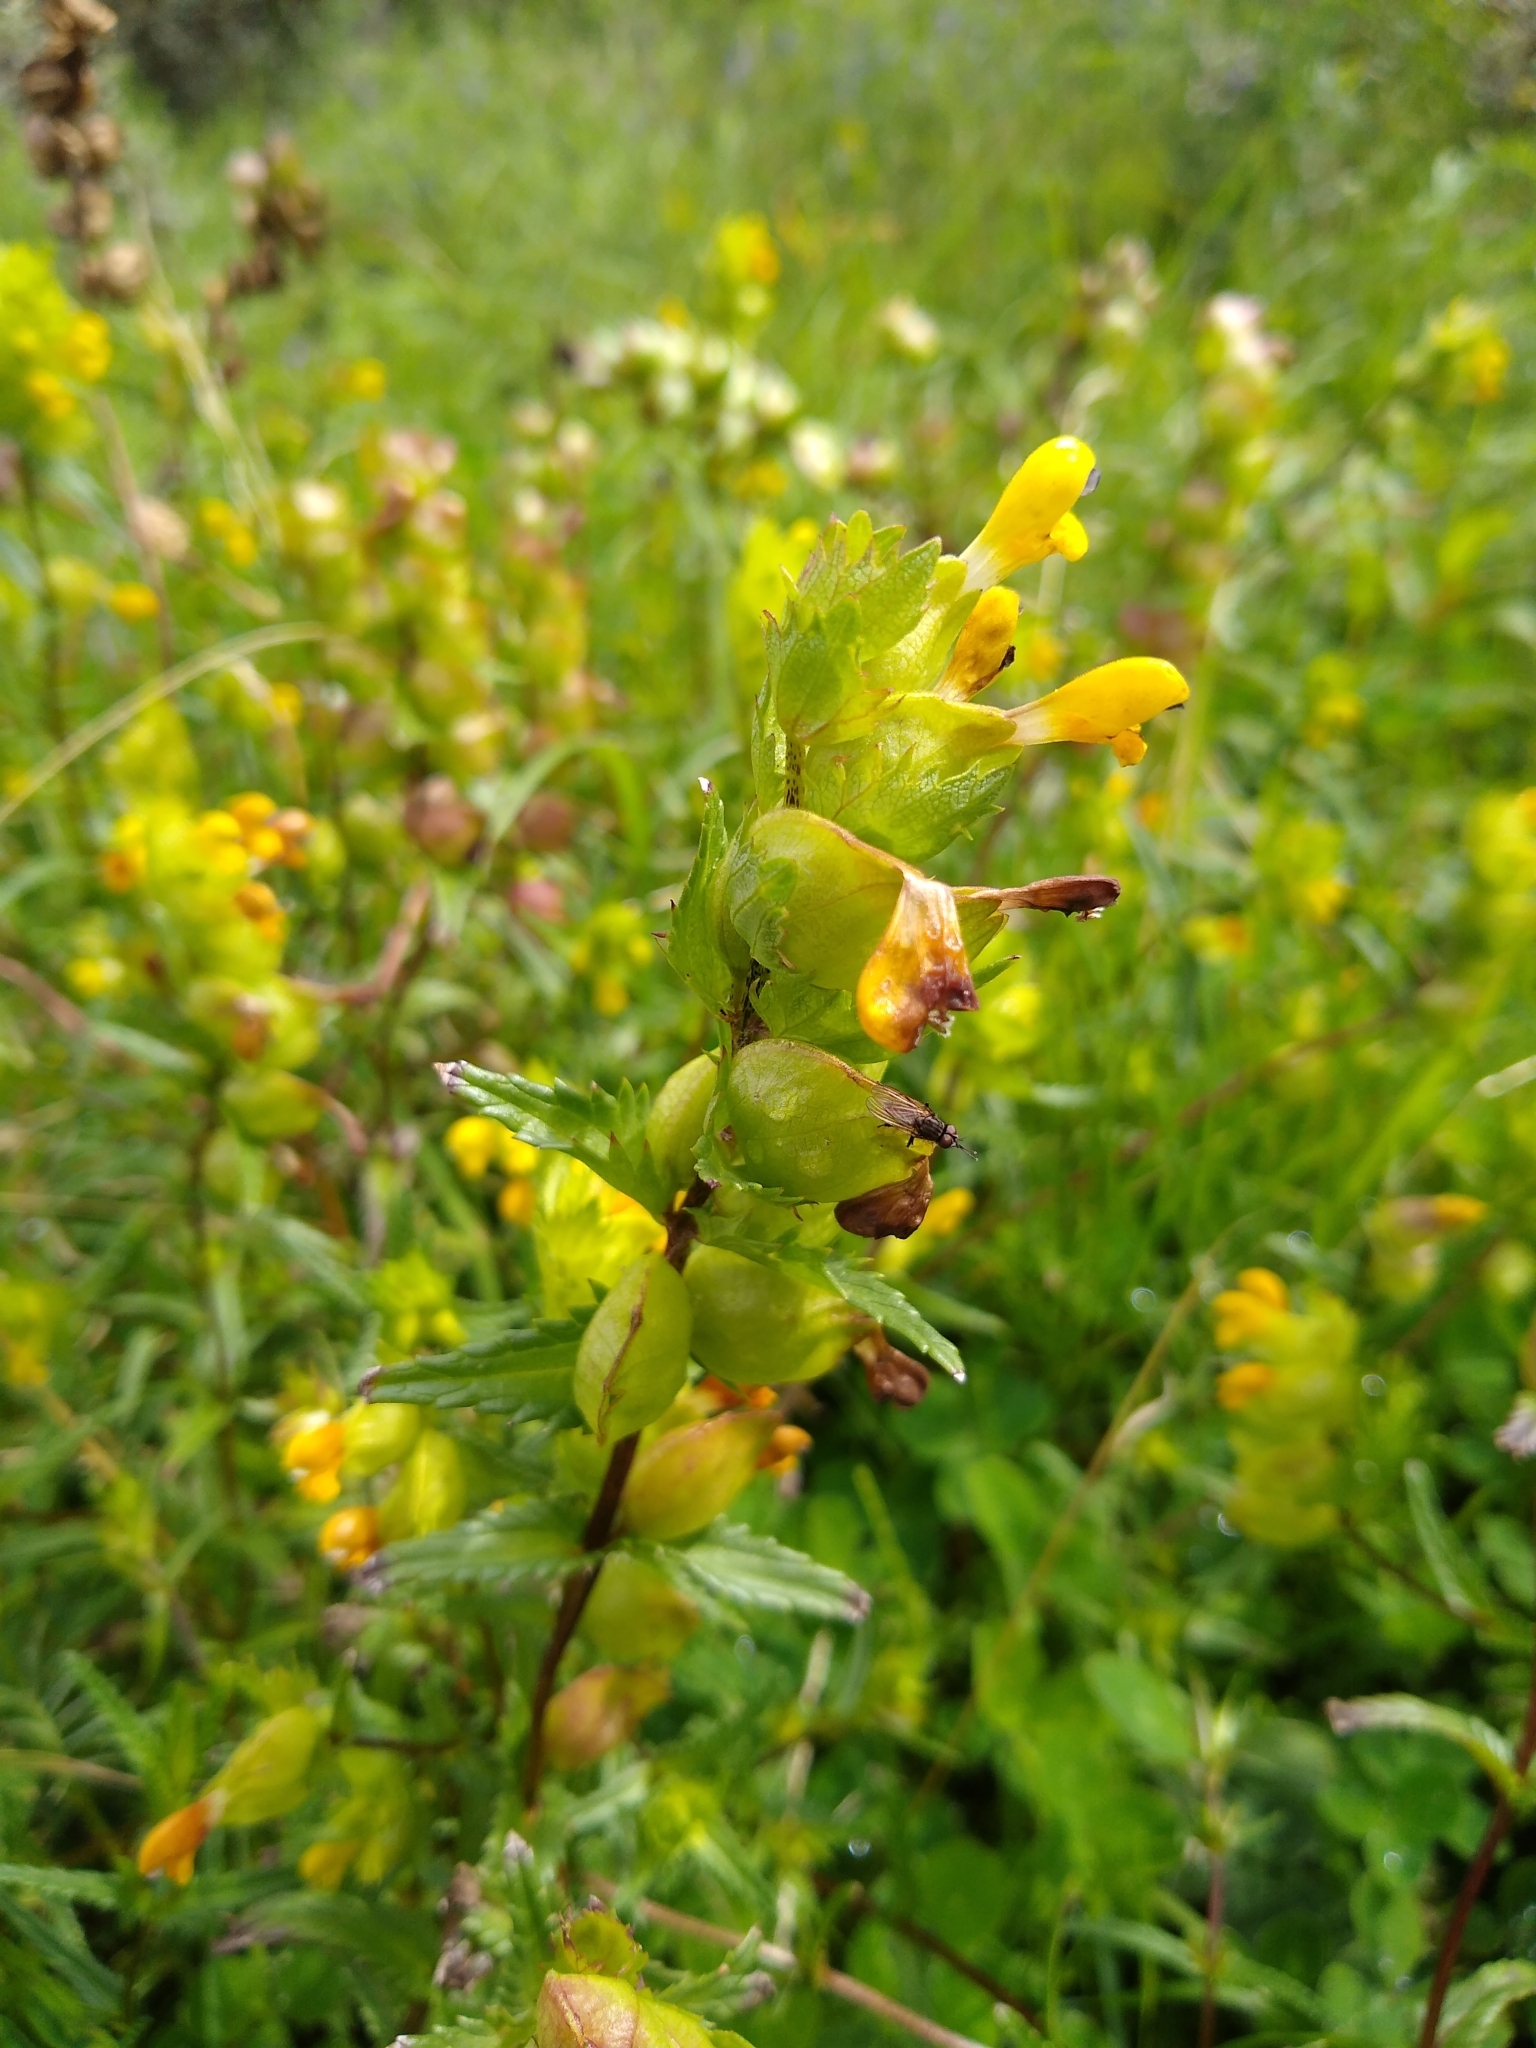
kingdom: Plantae
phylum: Tracheophyta
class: Magnoliopsida
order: Lamiales
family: Orobanchaceae
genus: Rhinanthus
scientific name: Rhinanthus minor
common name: Yellow-rattle
